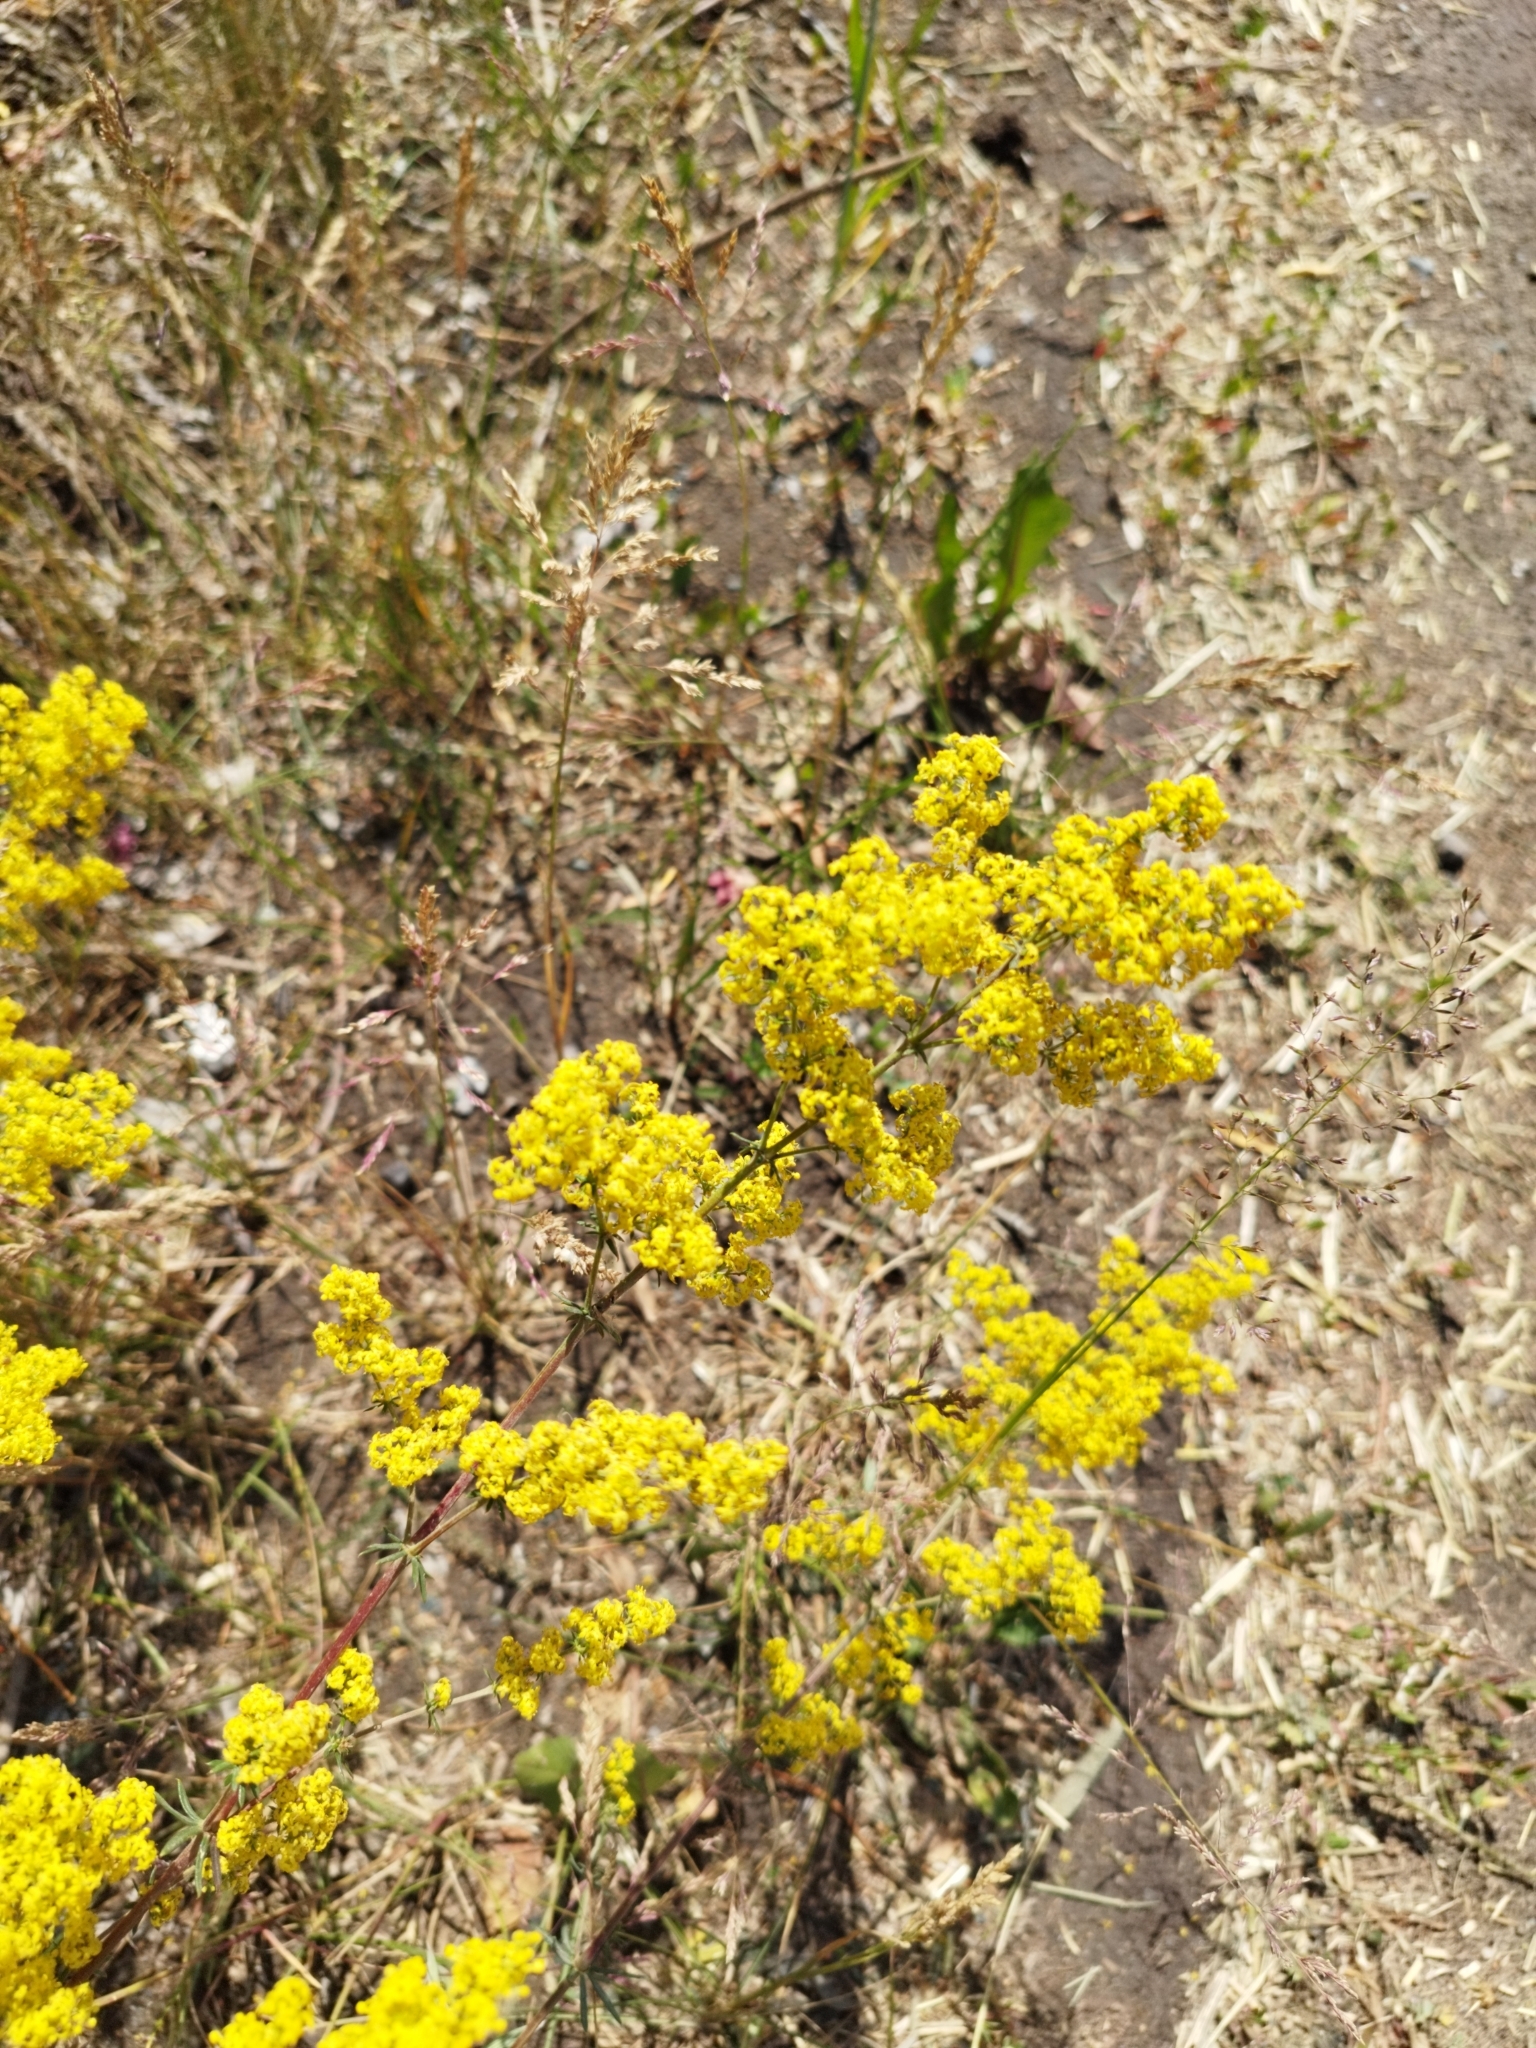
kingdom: Plantae
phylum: Tracheophyta
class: Magnoliopsida
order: Gentianales
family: Rubiaceae
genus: Galium
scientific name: Galium verum
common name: Lady's bedstraw
